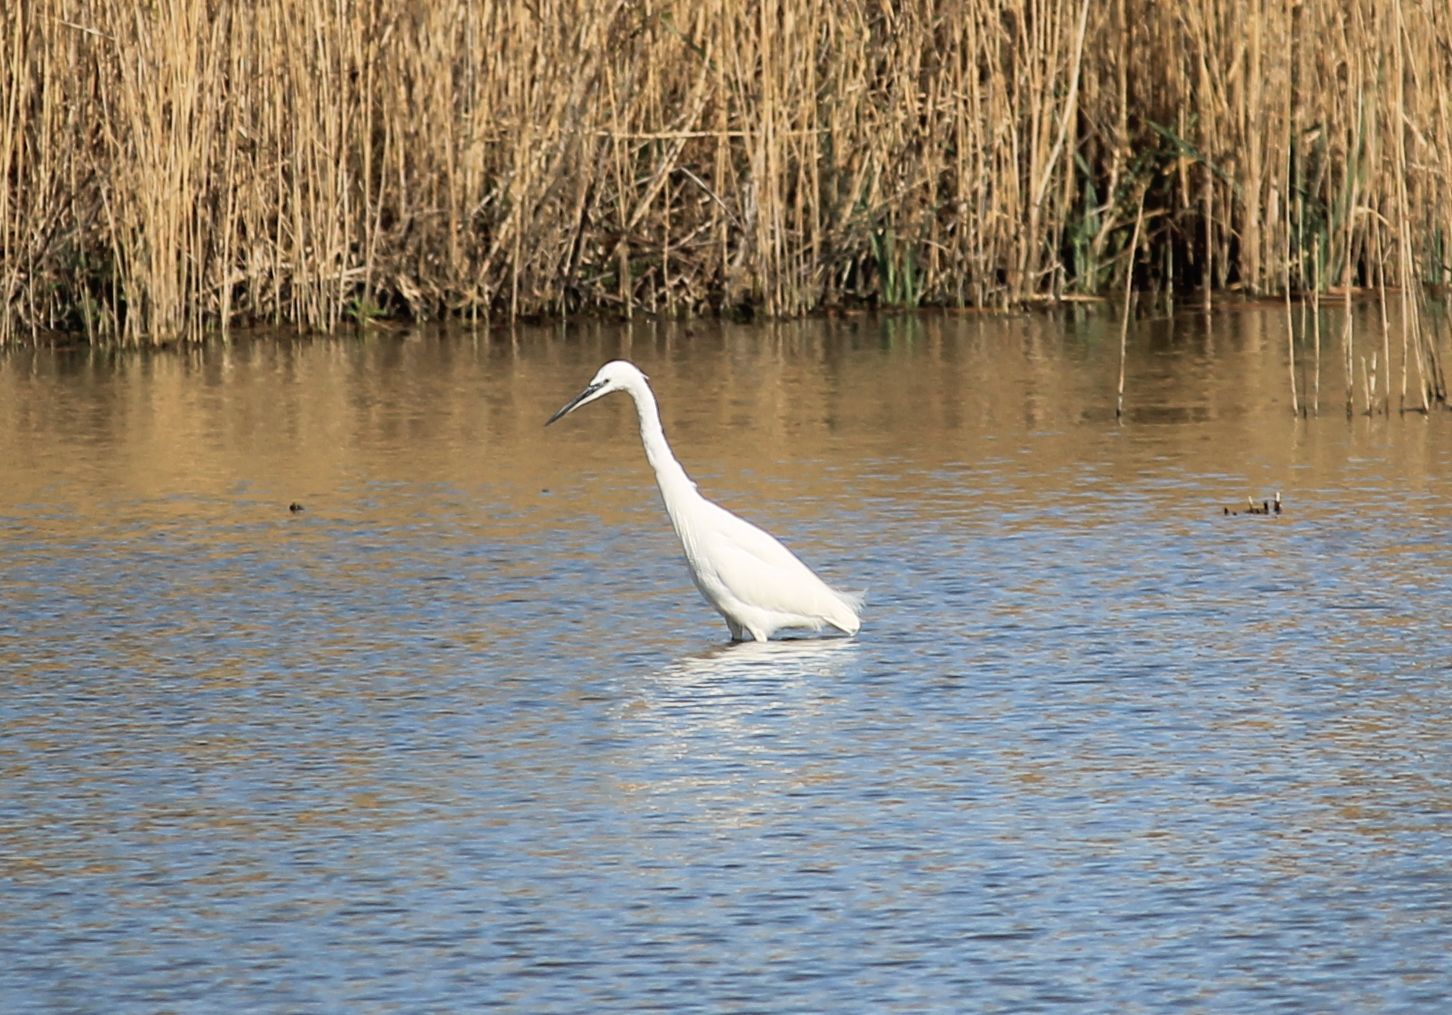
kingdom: Animalia
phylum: Chordata
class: Aves
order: Pelecaniformes
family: Ardeidae
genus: Egretta
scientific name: Egretta garzetta
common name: Little egret
